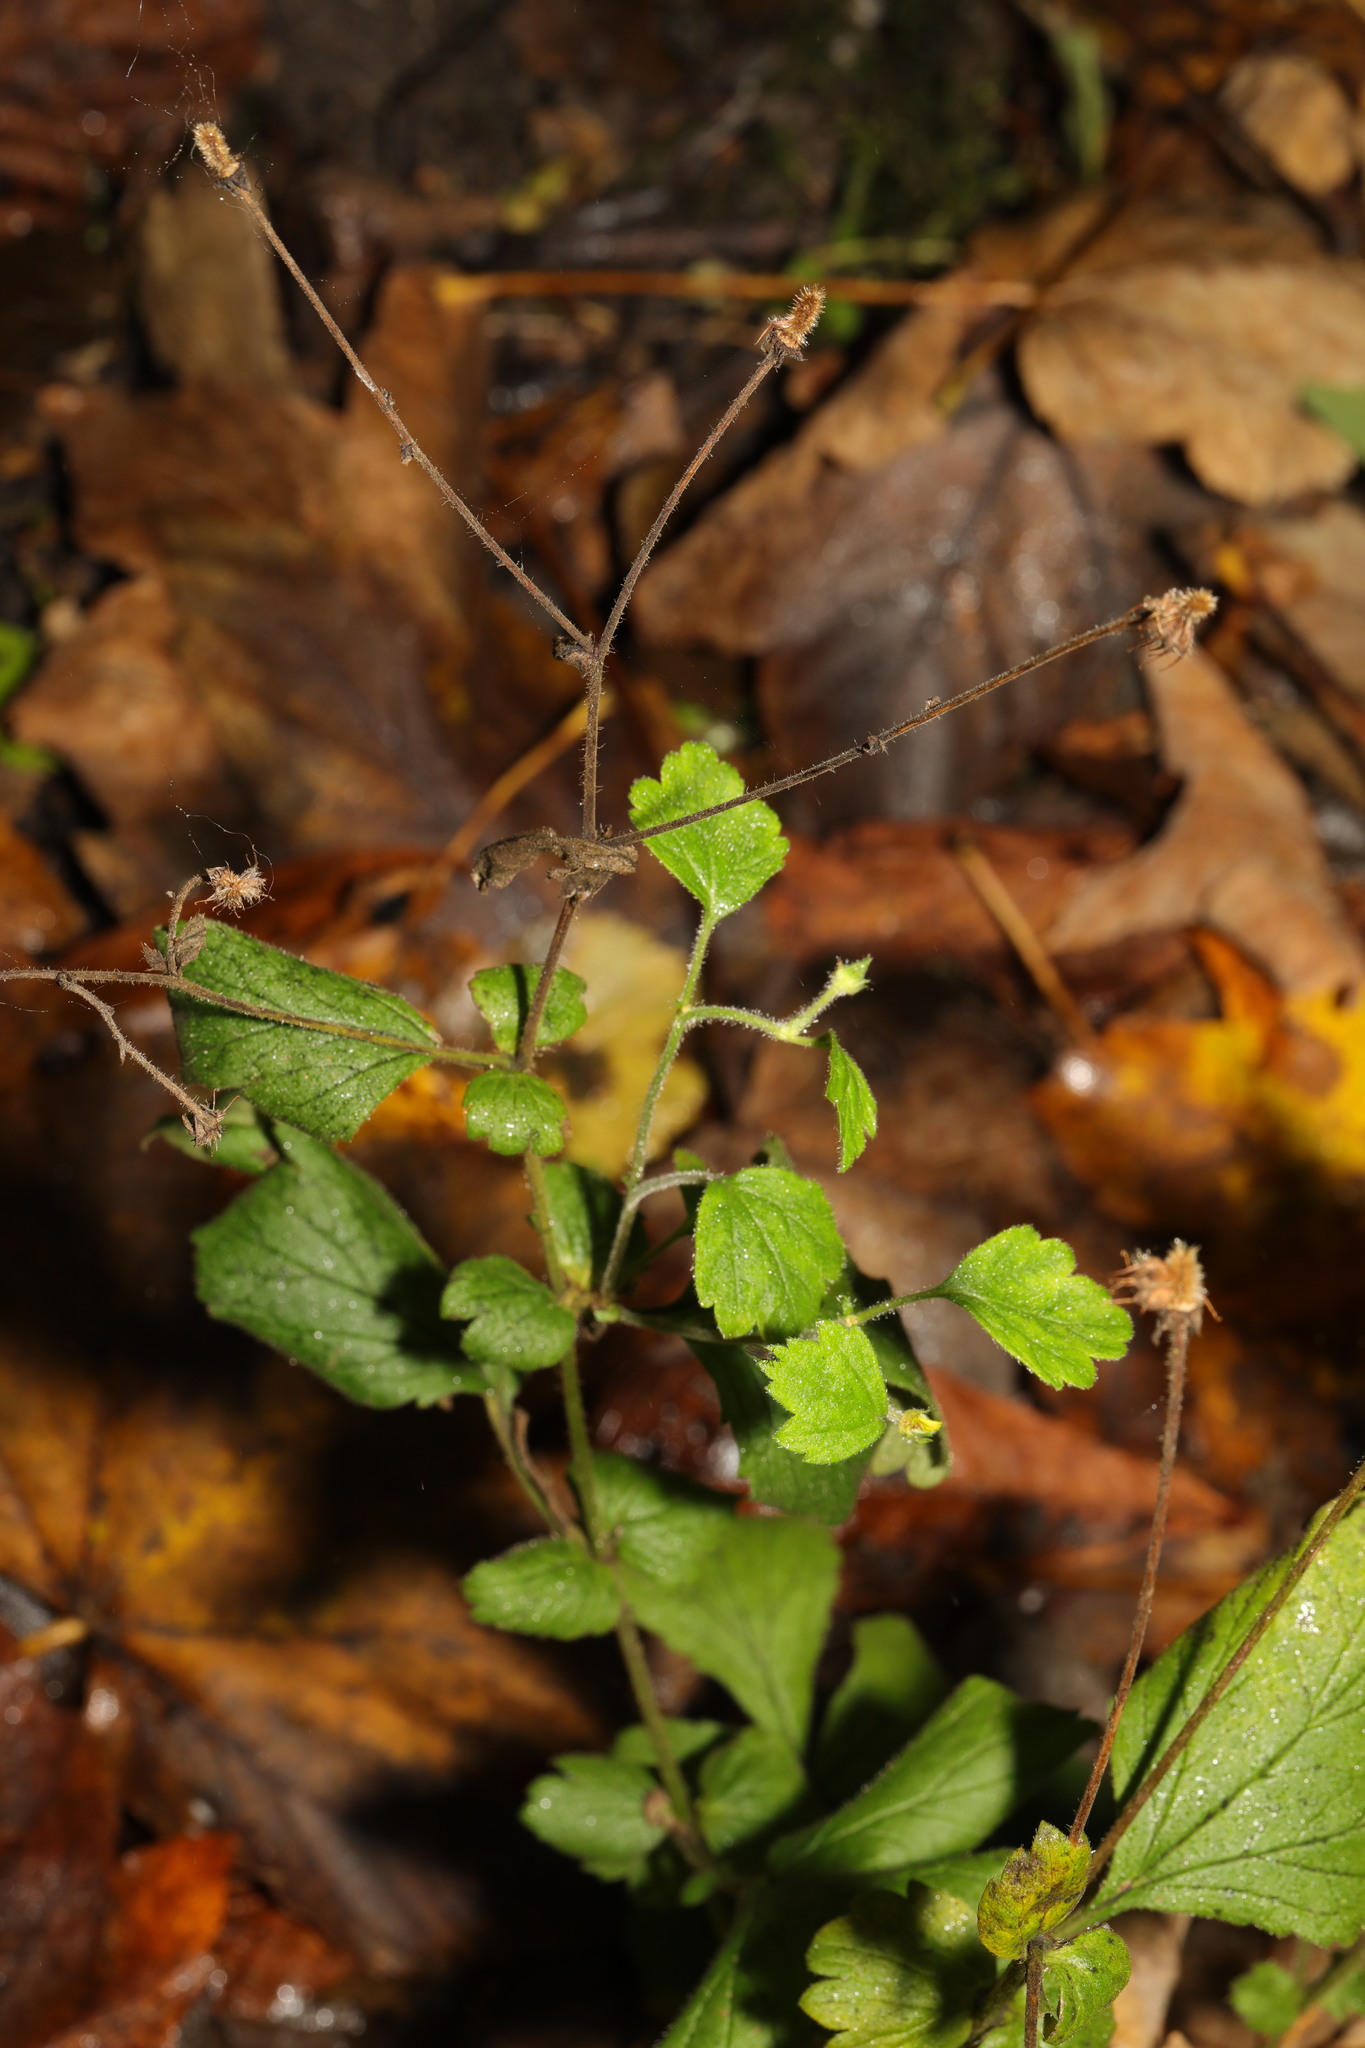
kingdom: Plantae
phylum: Tracheophyta
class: Magnoliopsida
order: Rosales
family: Rosaceae
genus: Geum
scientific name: Geum urbanum
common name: Wood avens
